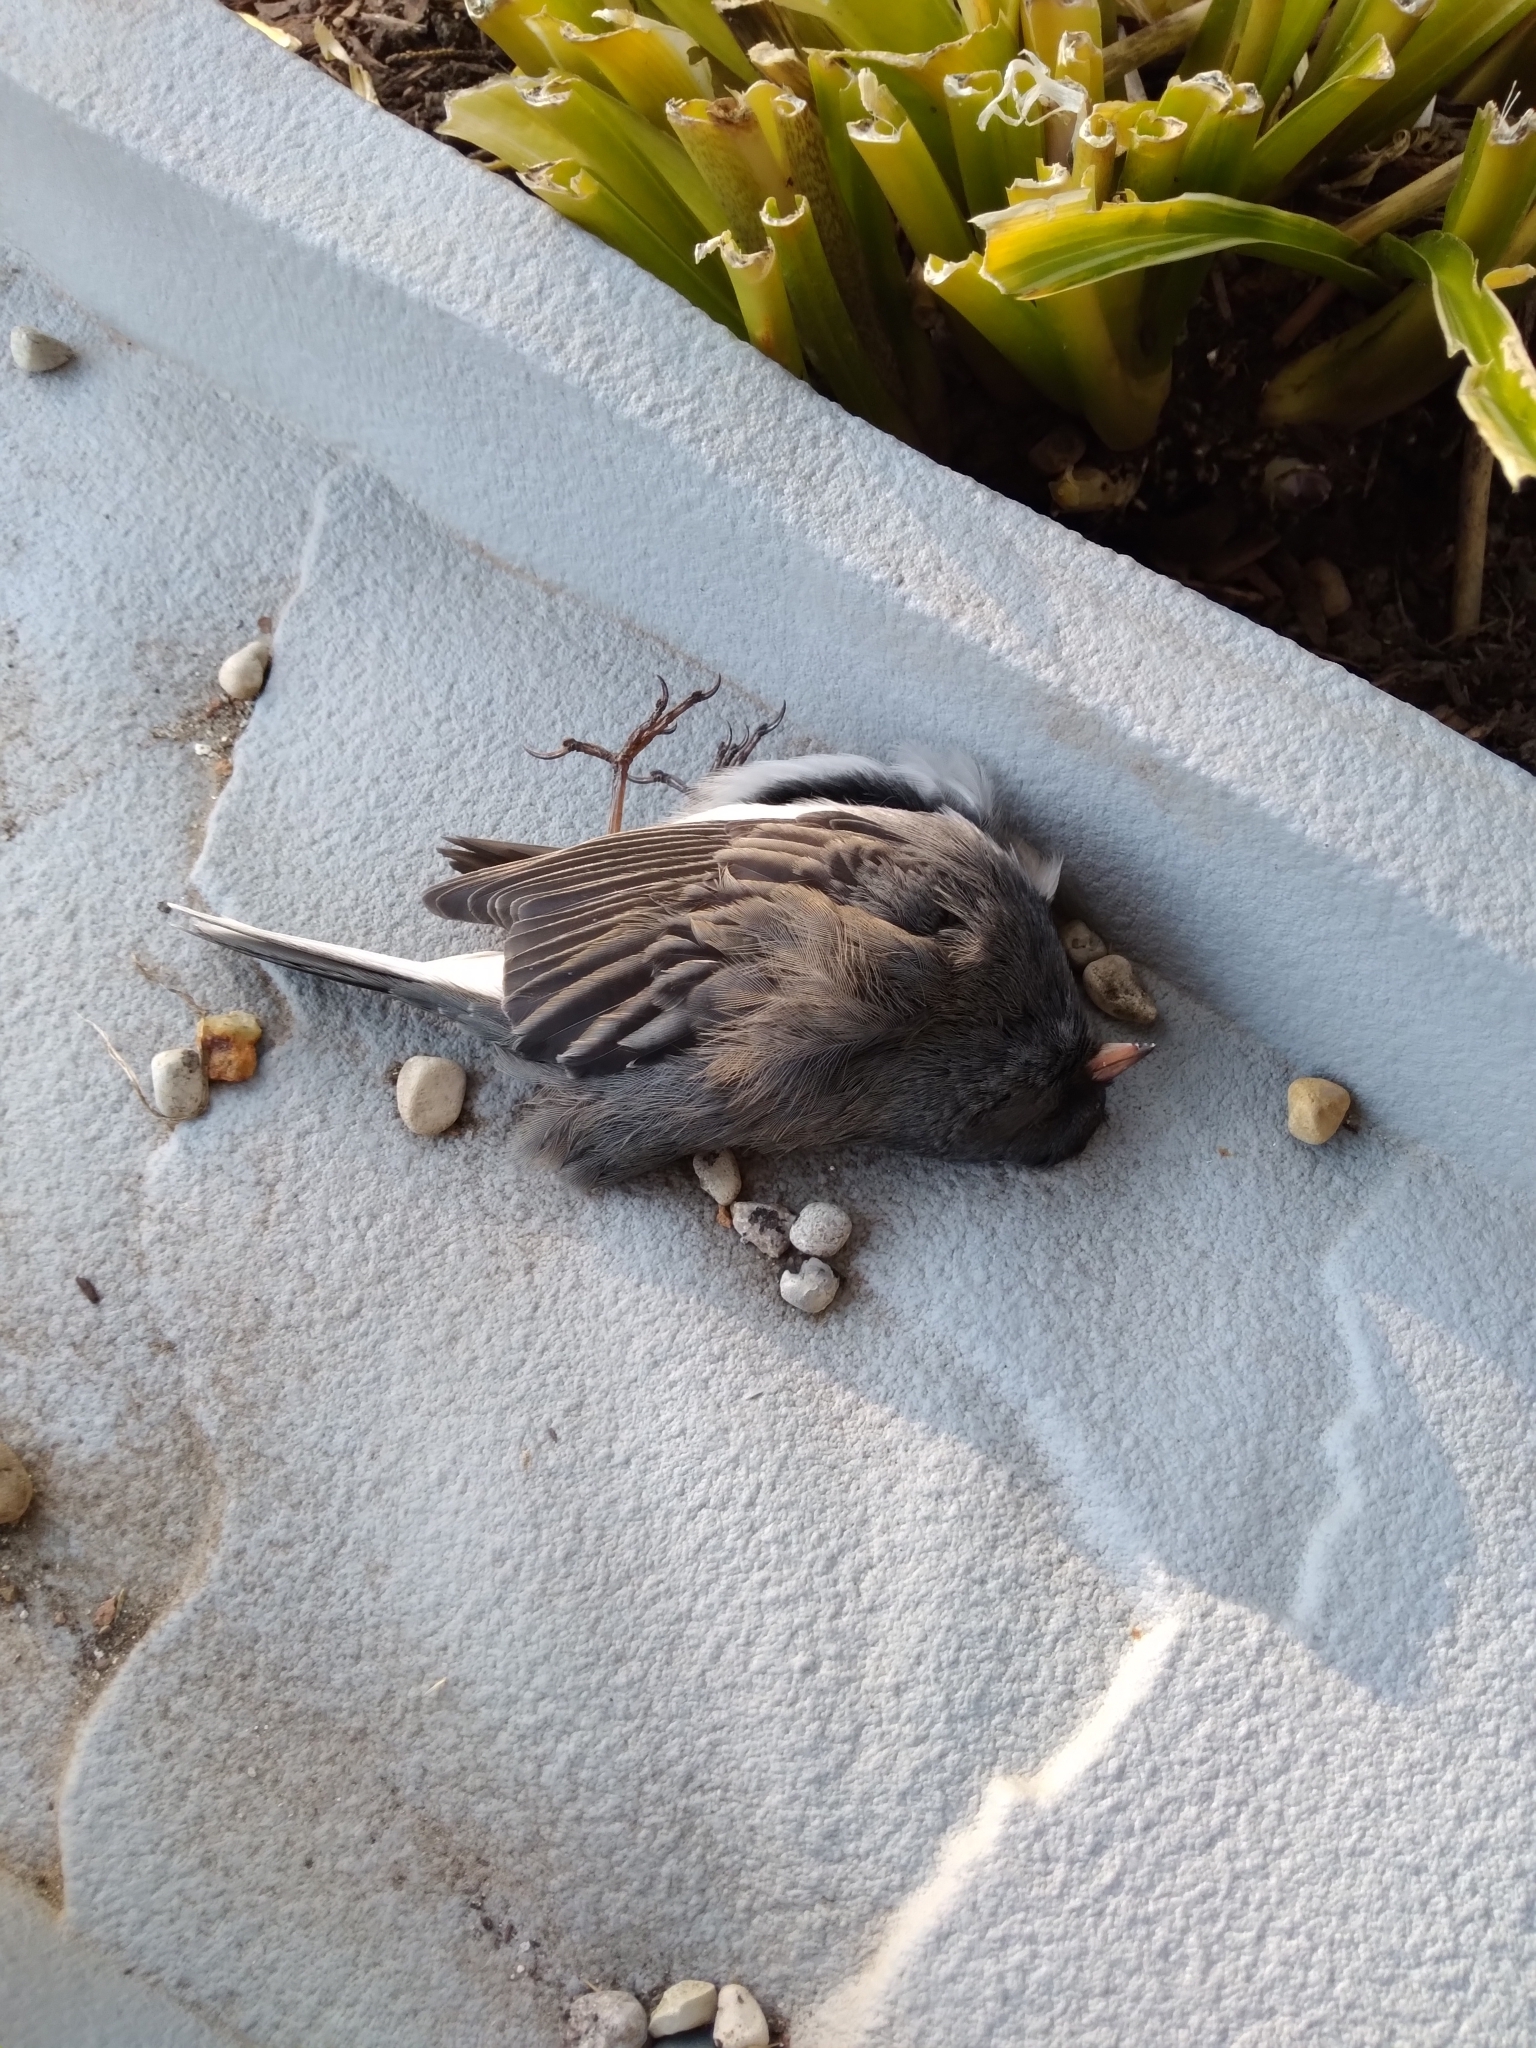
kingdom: Animalia
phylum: Chordata
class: Aves
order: Passeriformes
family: Passerellidae
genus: Junco
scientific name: Junco hyemalis
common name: Dark-eyed junco
